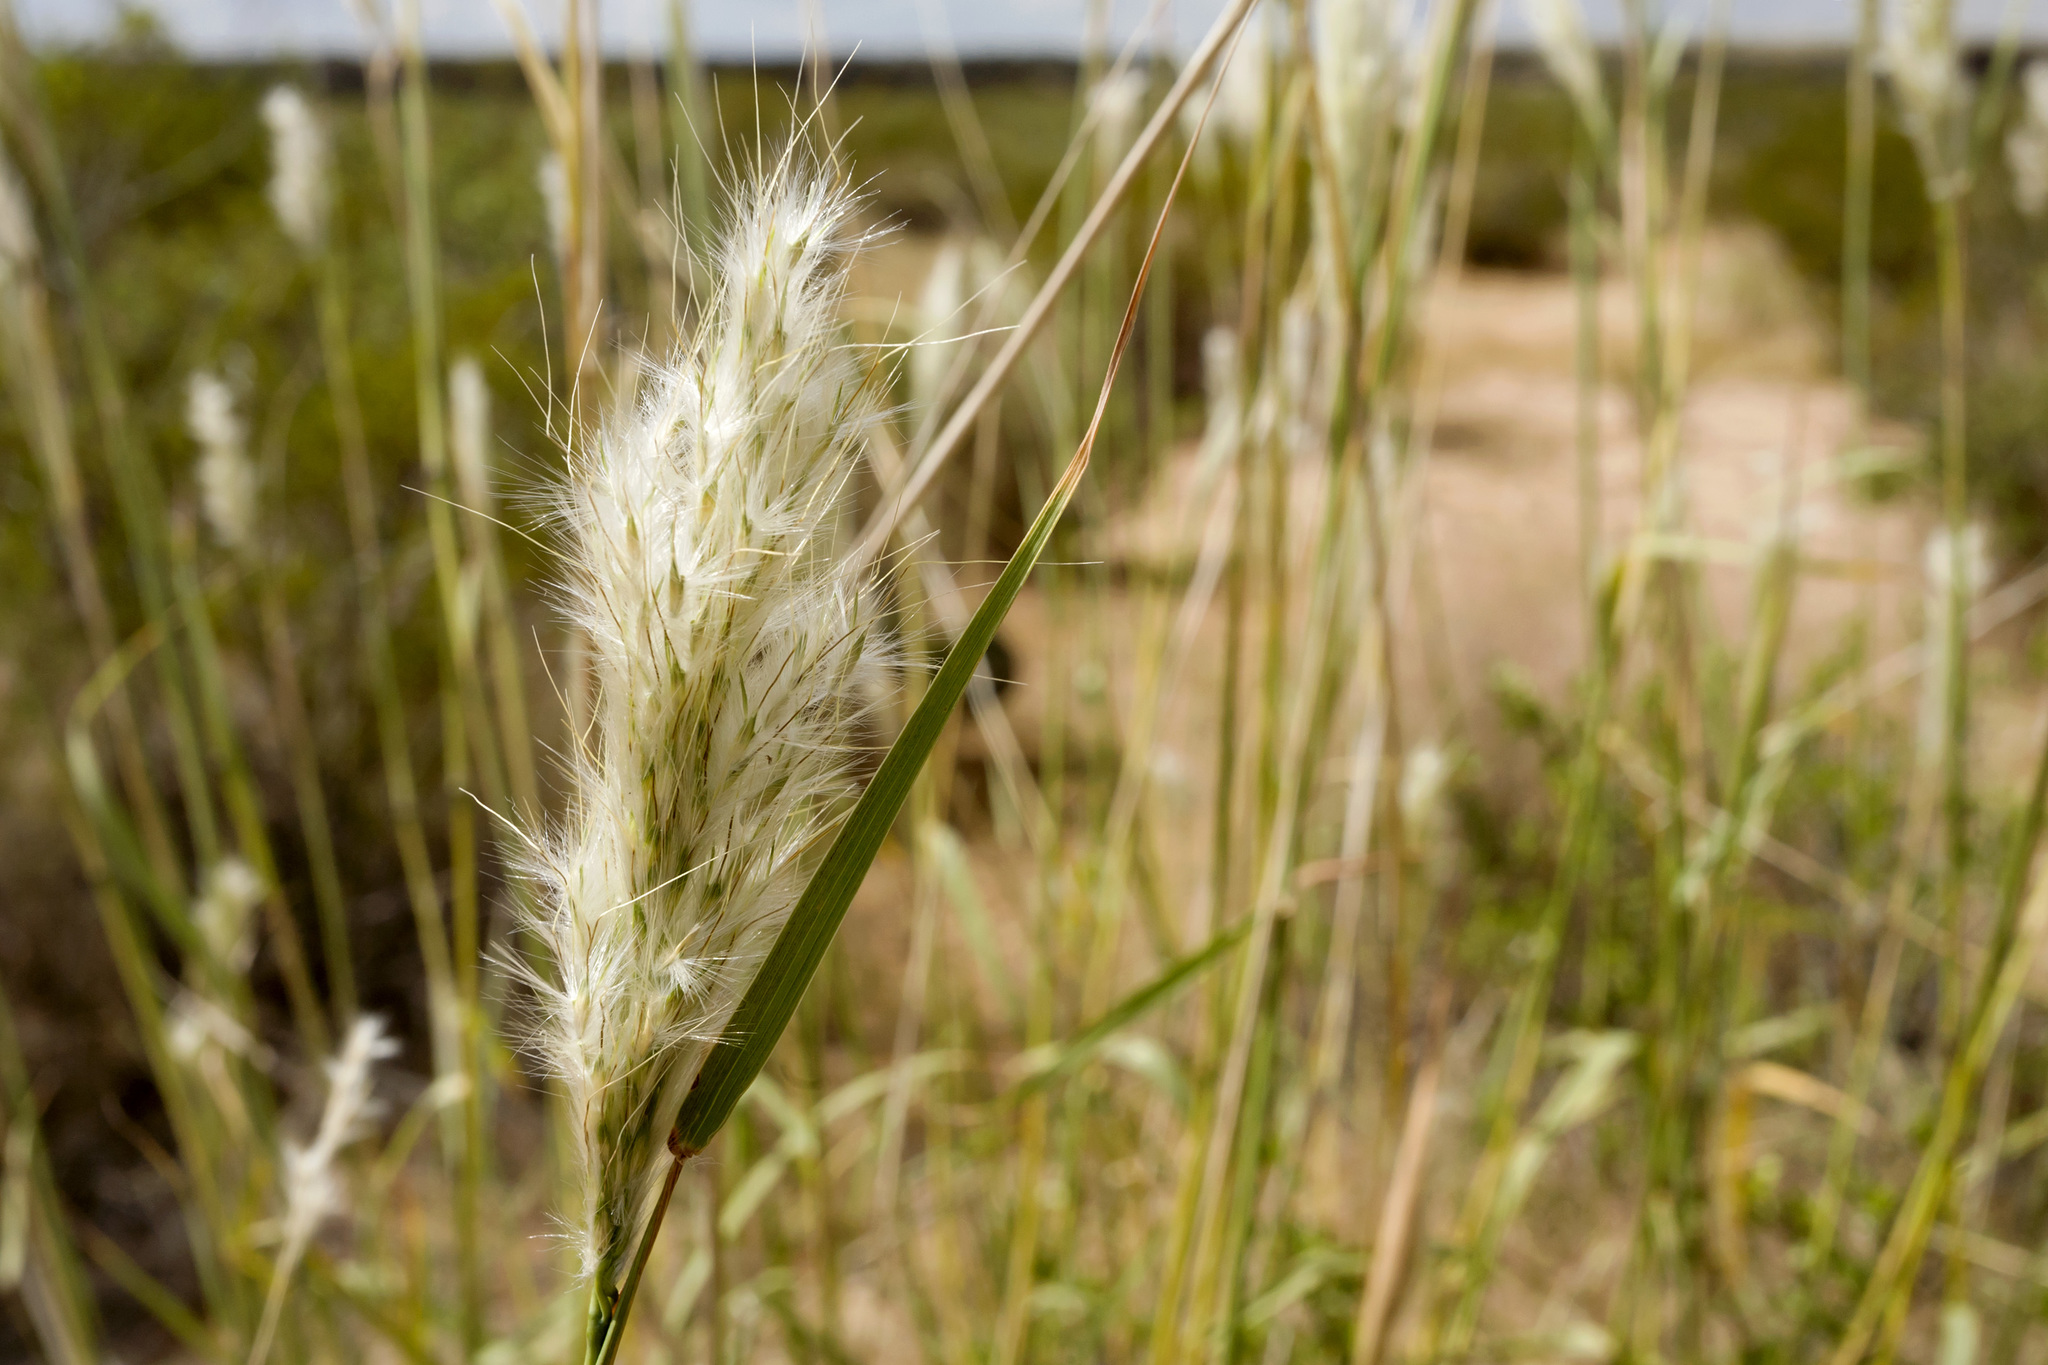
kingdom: Plantae
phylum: Tracheophyta
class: Liliopsida
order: Poales
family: Poaceae
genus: Bothriochloa
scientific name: Bothriochloa barbinodis
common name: Cane bluestem
